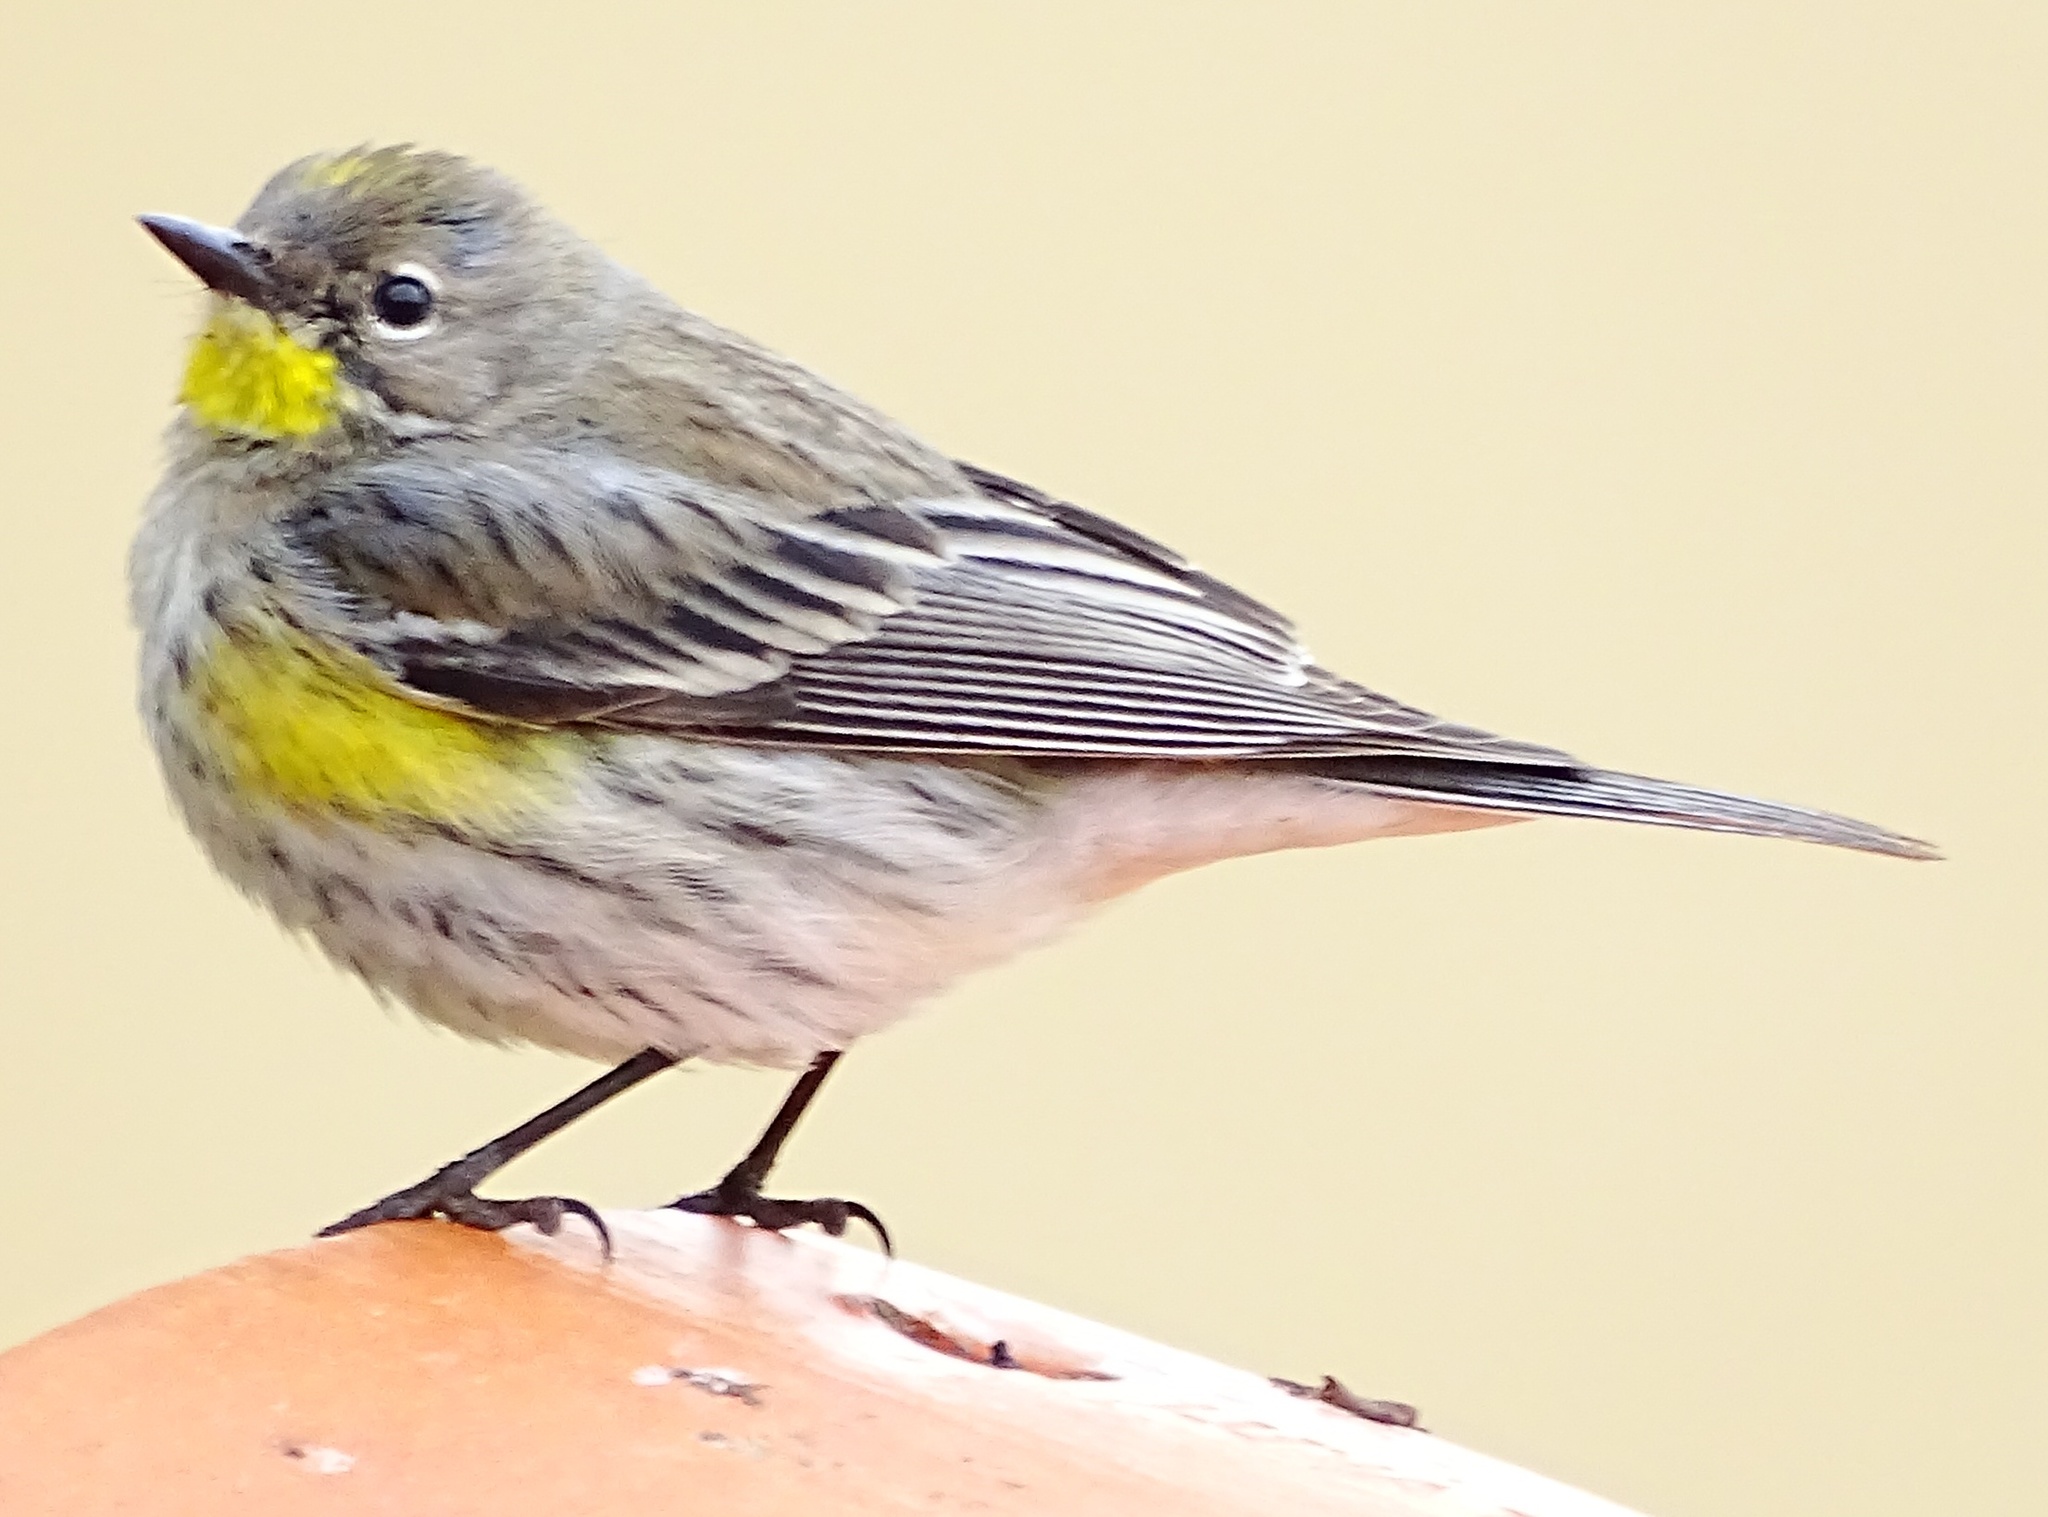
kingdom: Animalia
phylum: Chordata
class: Aves
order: Passeriformes
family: Parulidae
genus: Setophaga
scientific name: Setophaga coronata
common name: Myrtle warbler
